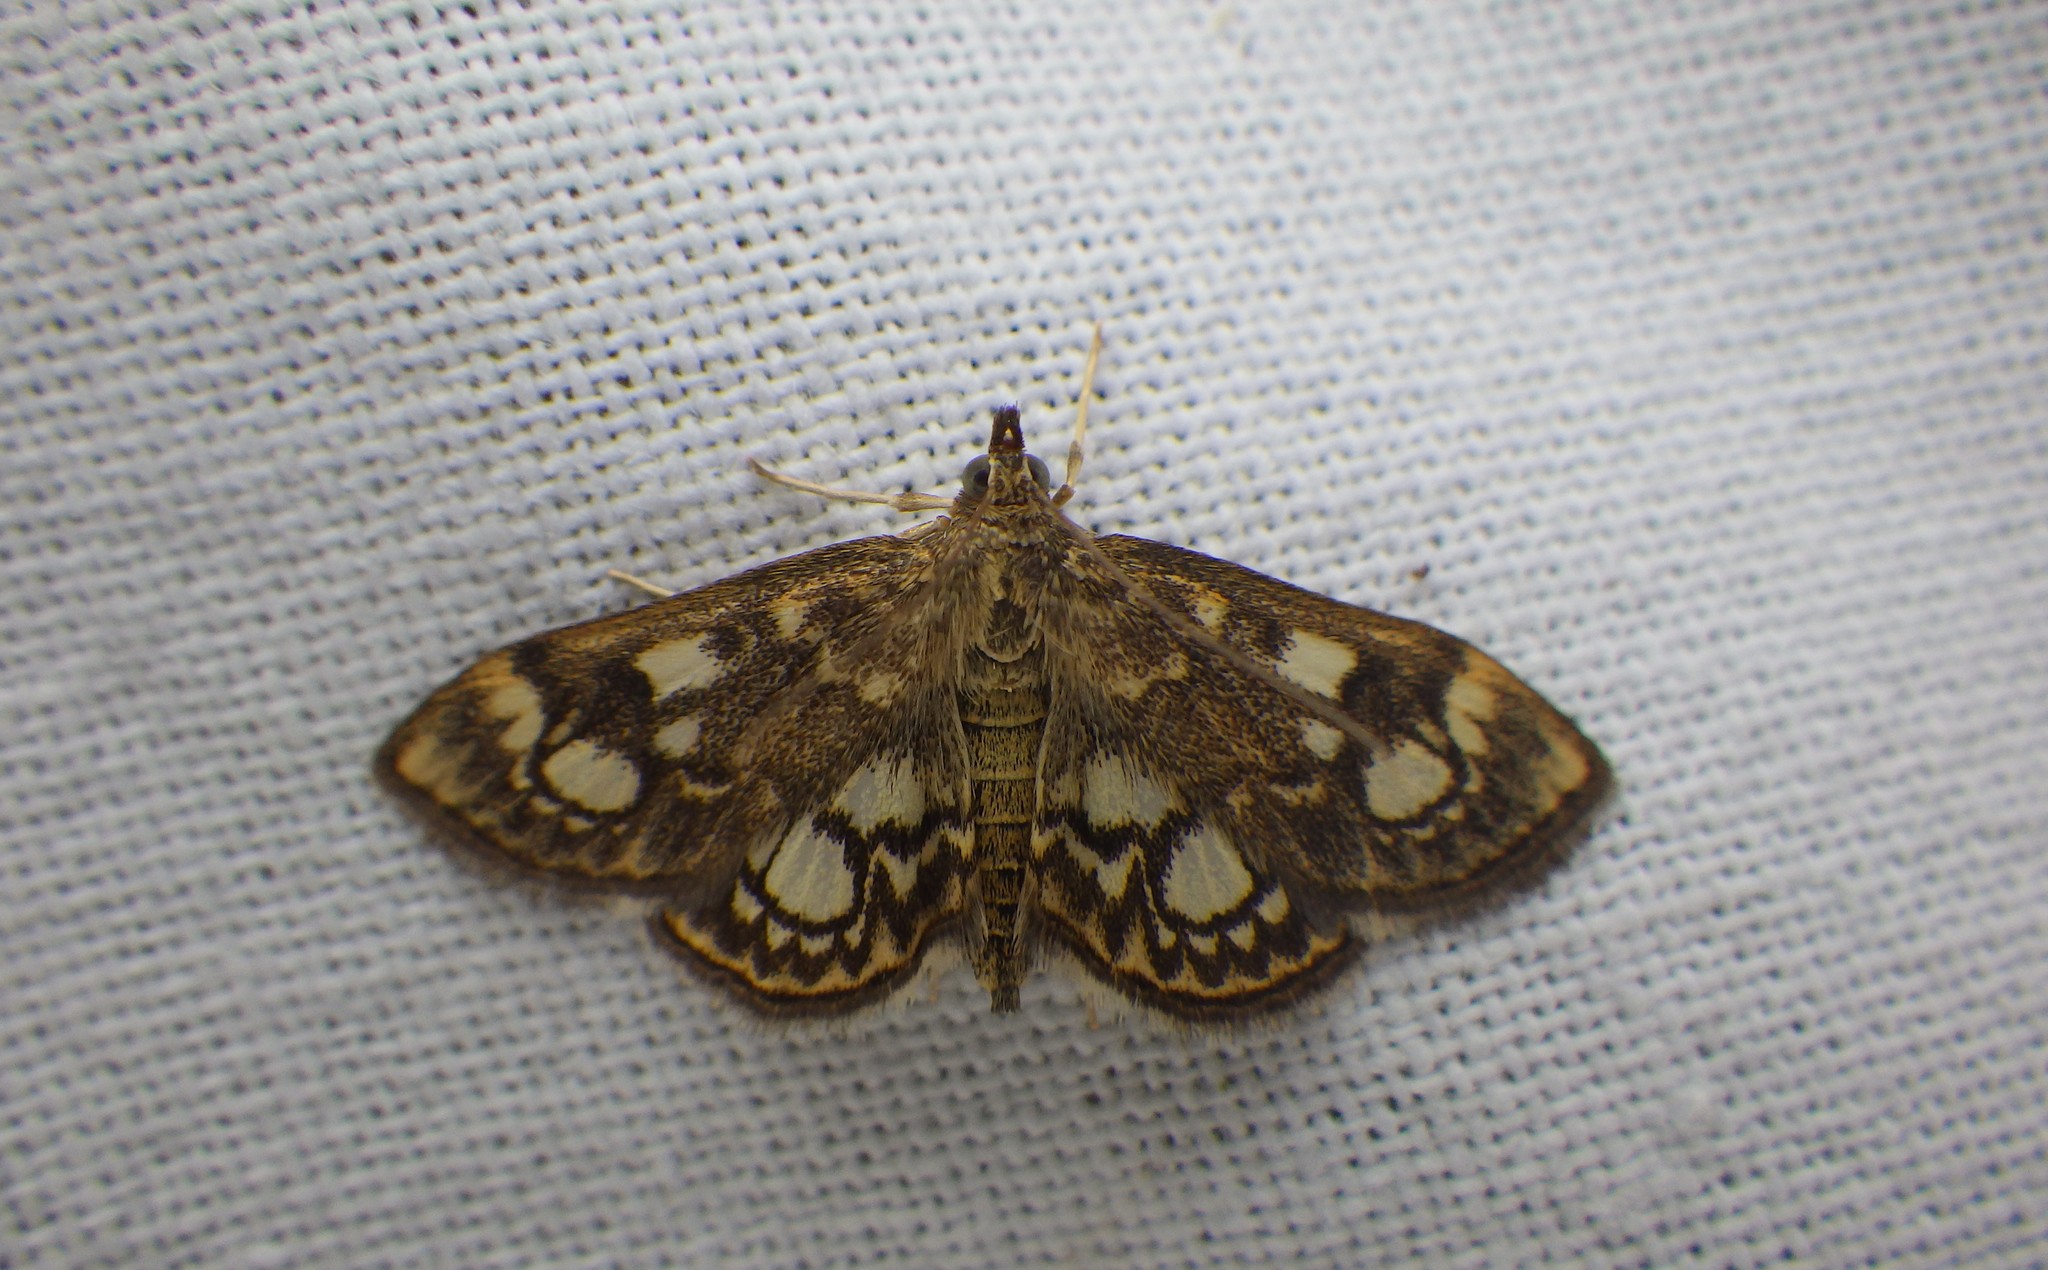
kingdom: Animalia
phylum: Arthropoda
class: Insecta
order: Lepidoptera
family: Crambidae
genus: Anania
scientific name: Anania coronata
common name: Elder pearl
